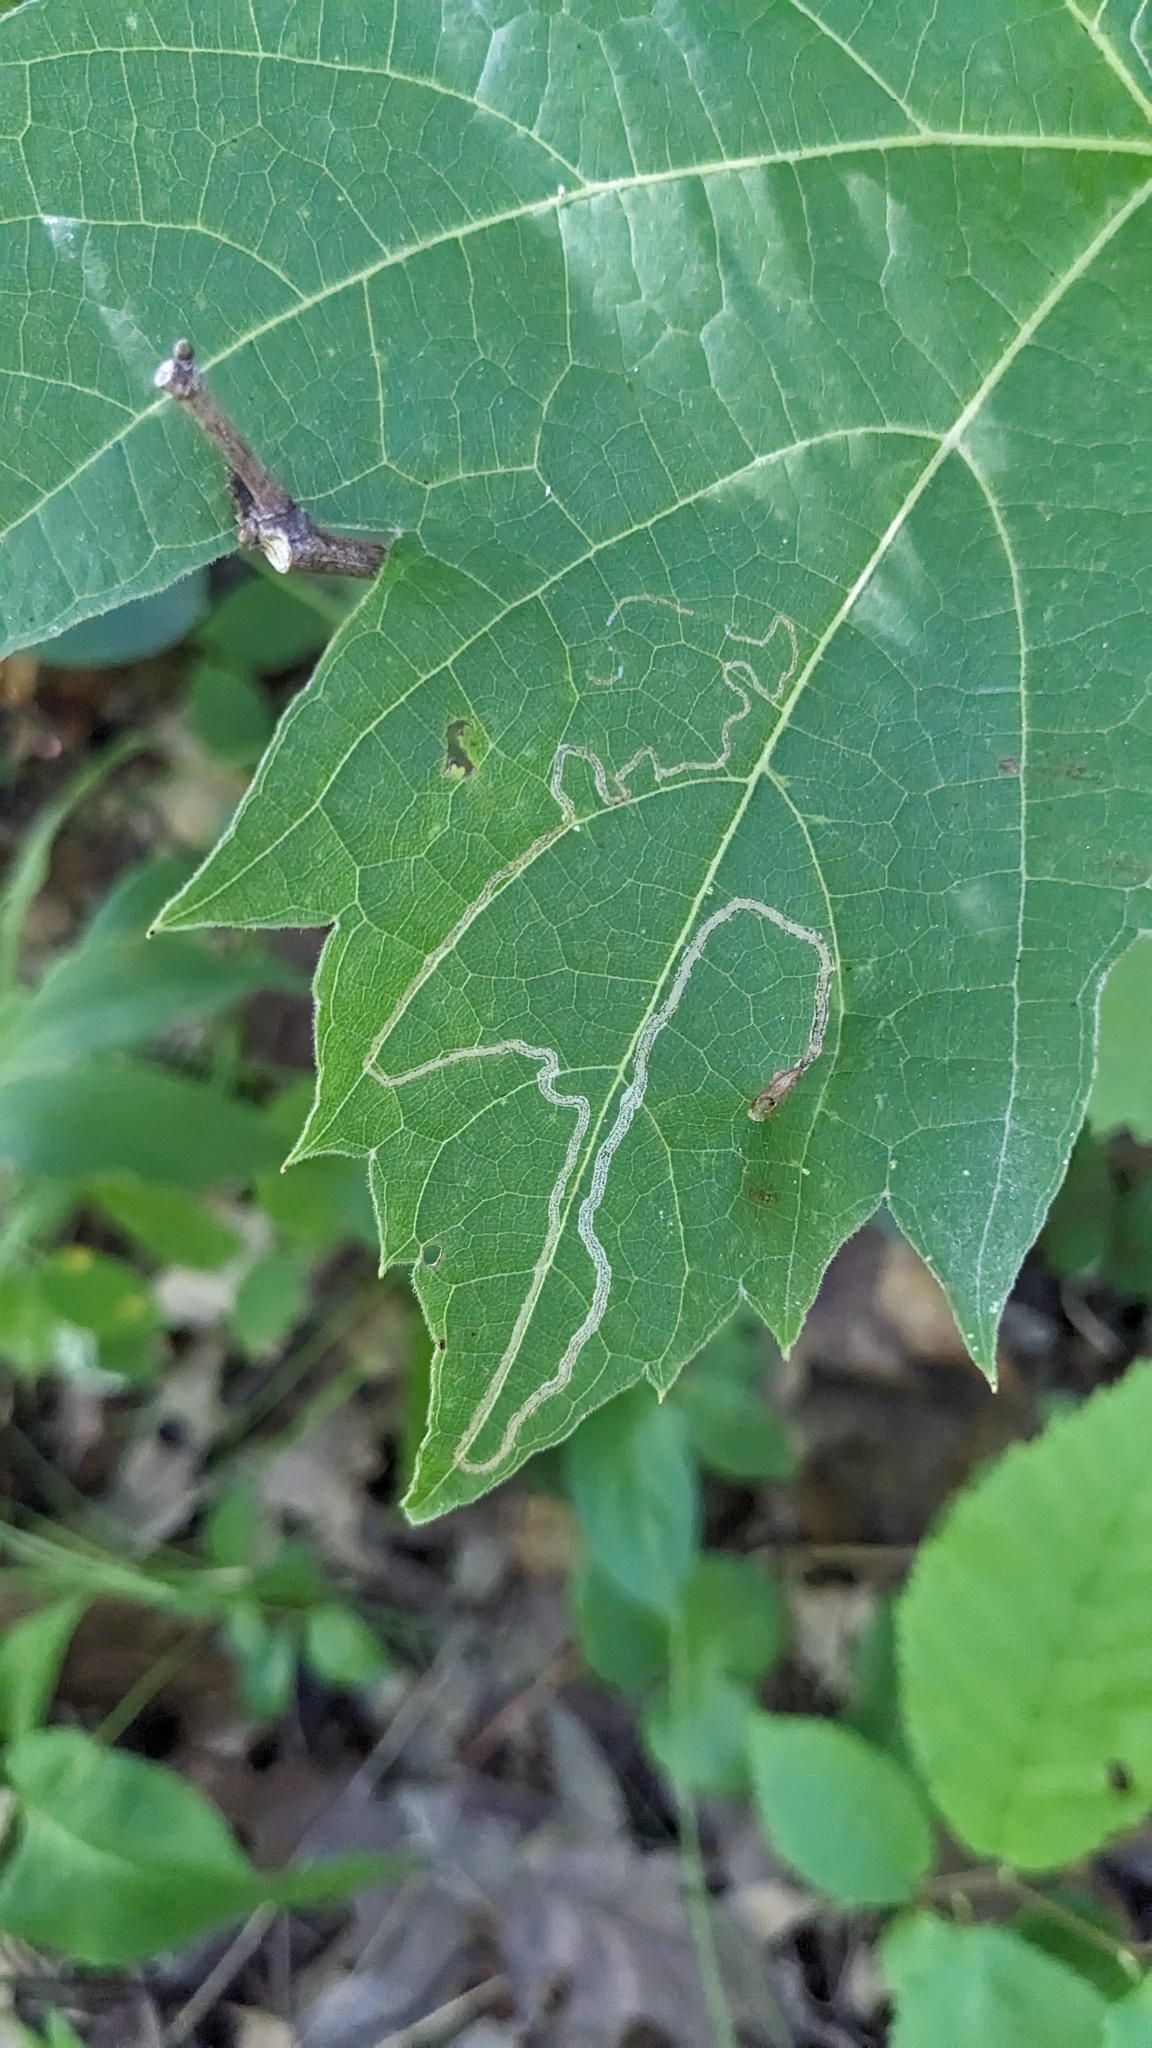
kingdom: Animalia
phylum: Arthropoda
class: Insecta
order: Lepidoptera
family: Gracillariidae
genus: Phyllocnistis
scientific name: Phyllocnistis vitifoliella
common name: Grape leaf-miner moth
